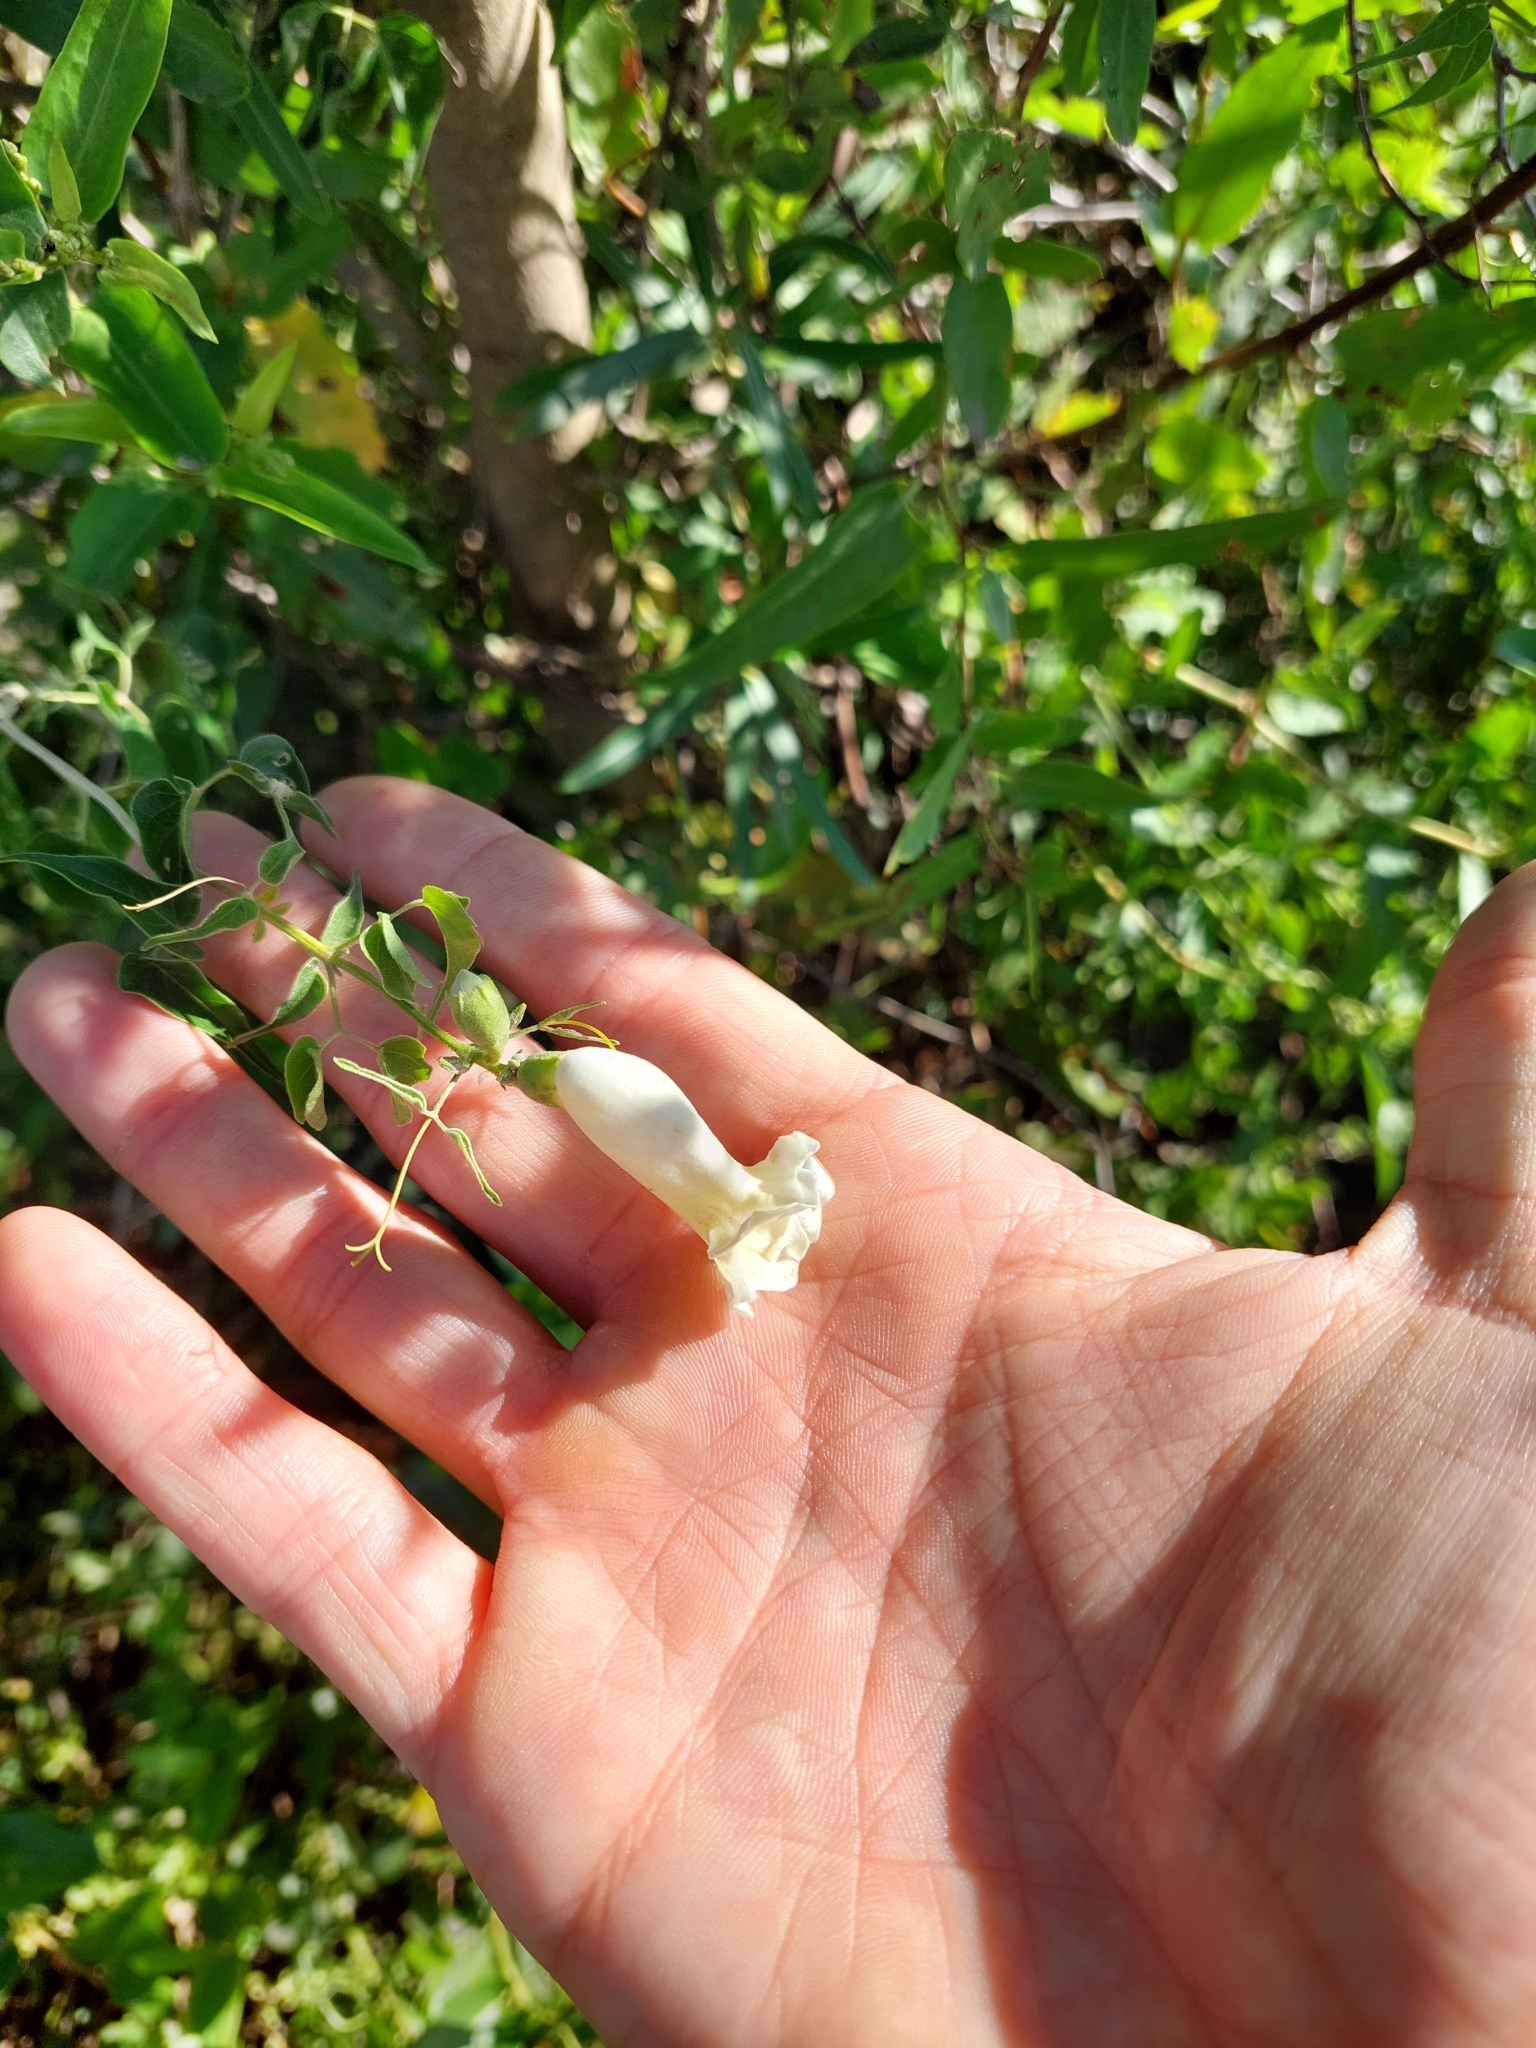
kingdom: Plantae
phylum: Tracheophyta
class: Magnoliopsida
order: Lamiales
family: Bignoniaceae
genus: Amphilophium
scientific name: Amphilophium carolinae
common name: Monkey's-comb
